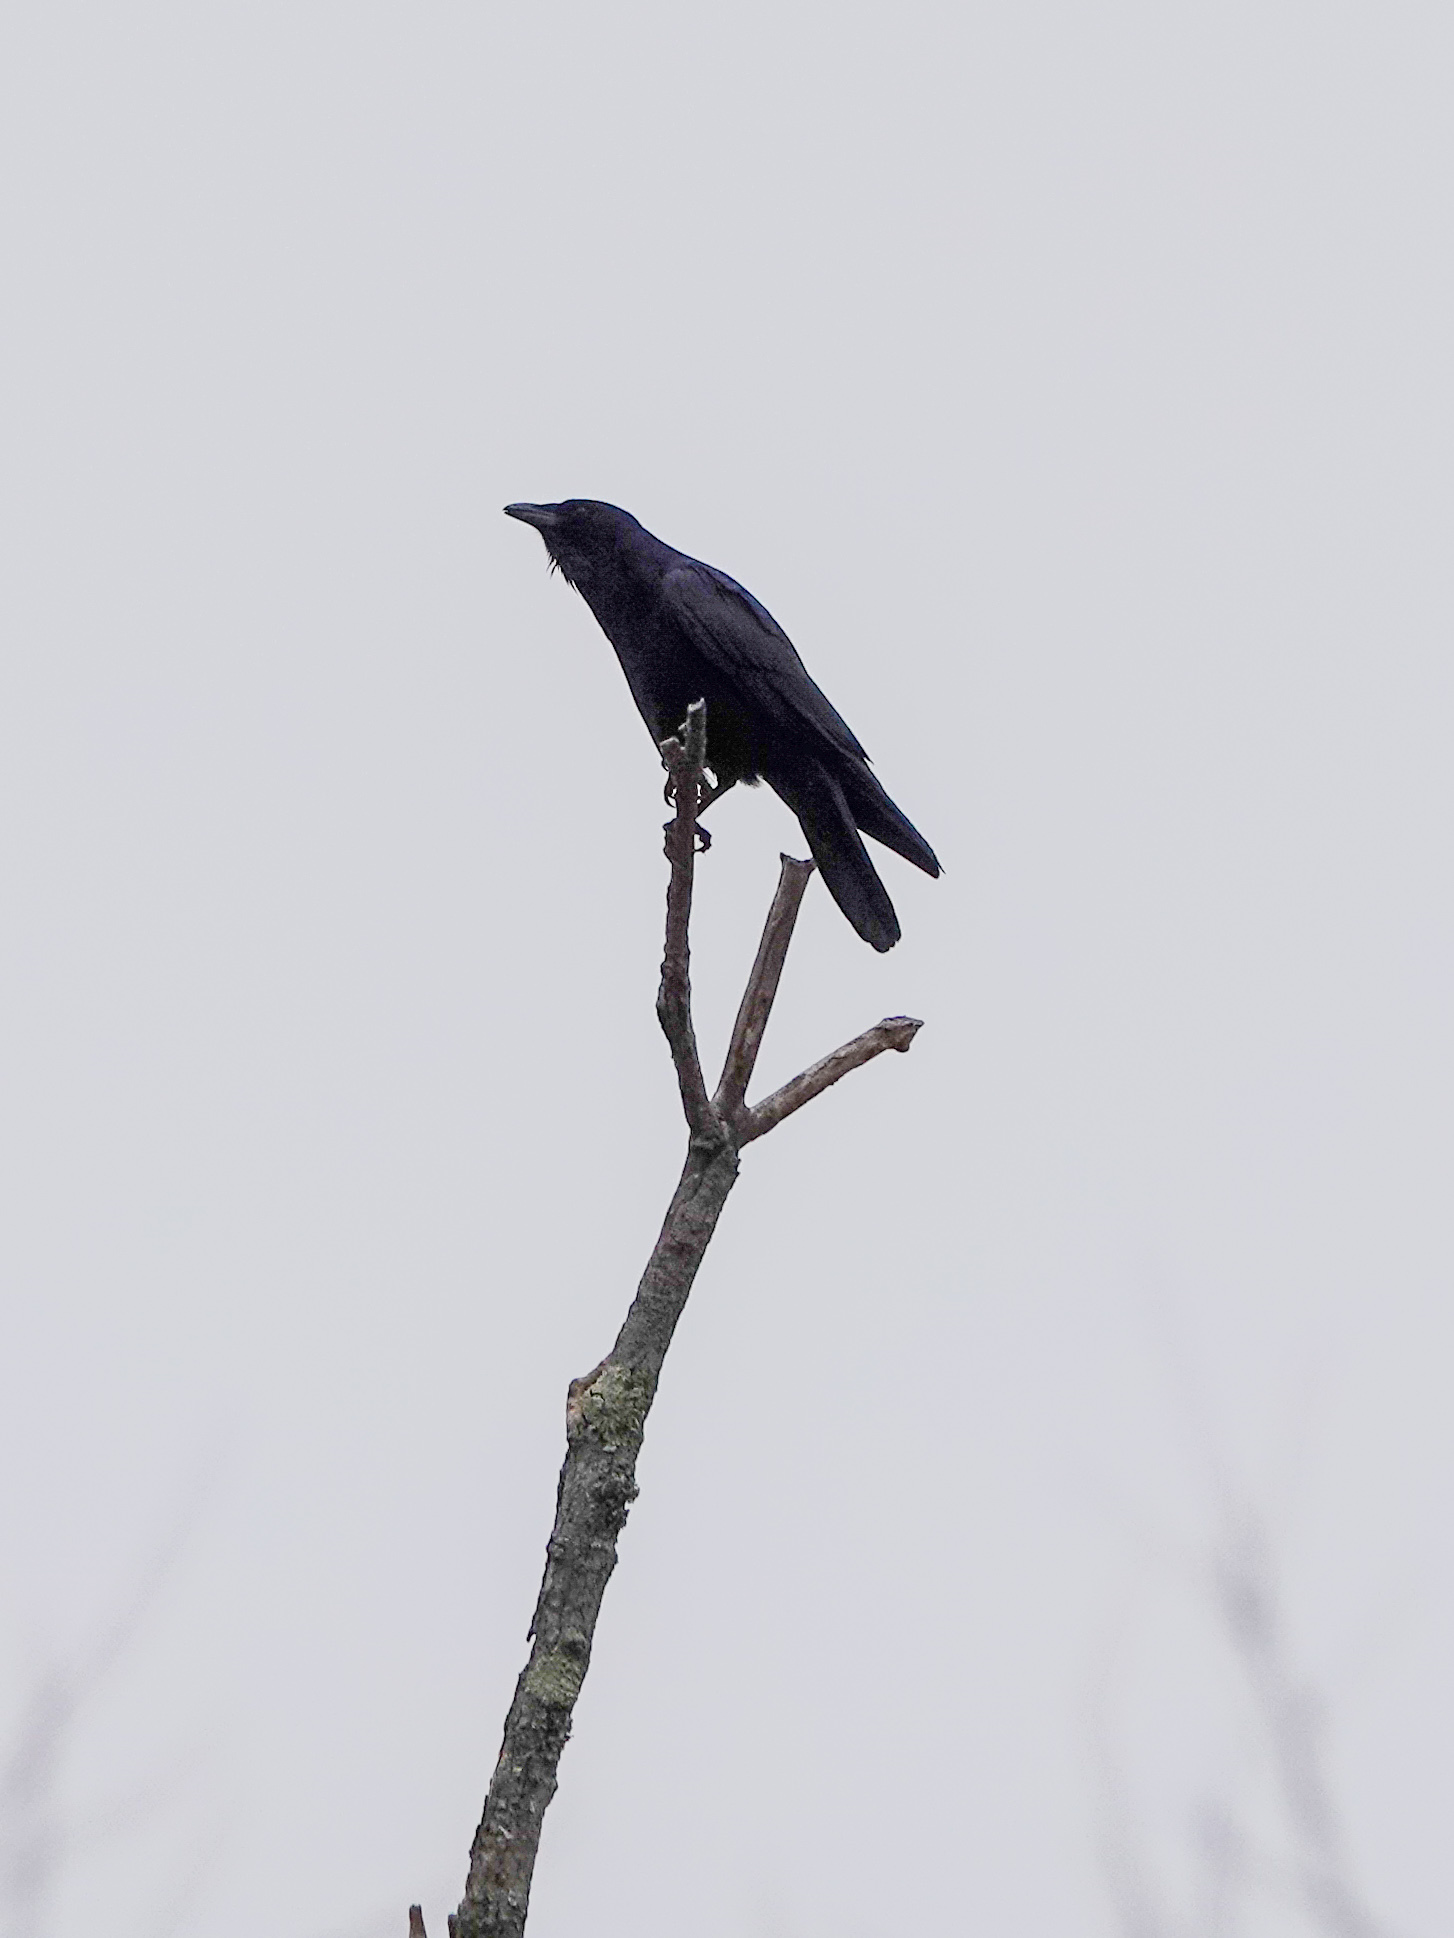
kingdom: Animalia
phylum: Chordata
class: Aves
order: Passeriformes
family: Corvidae
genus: Corvus
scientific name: Corvus ossifragus
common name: Fish crow
